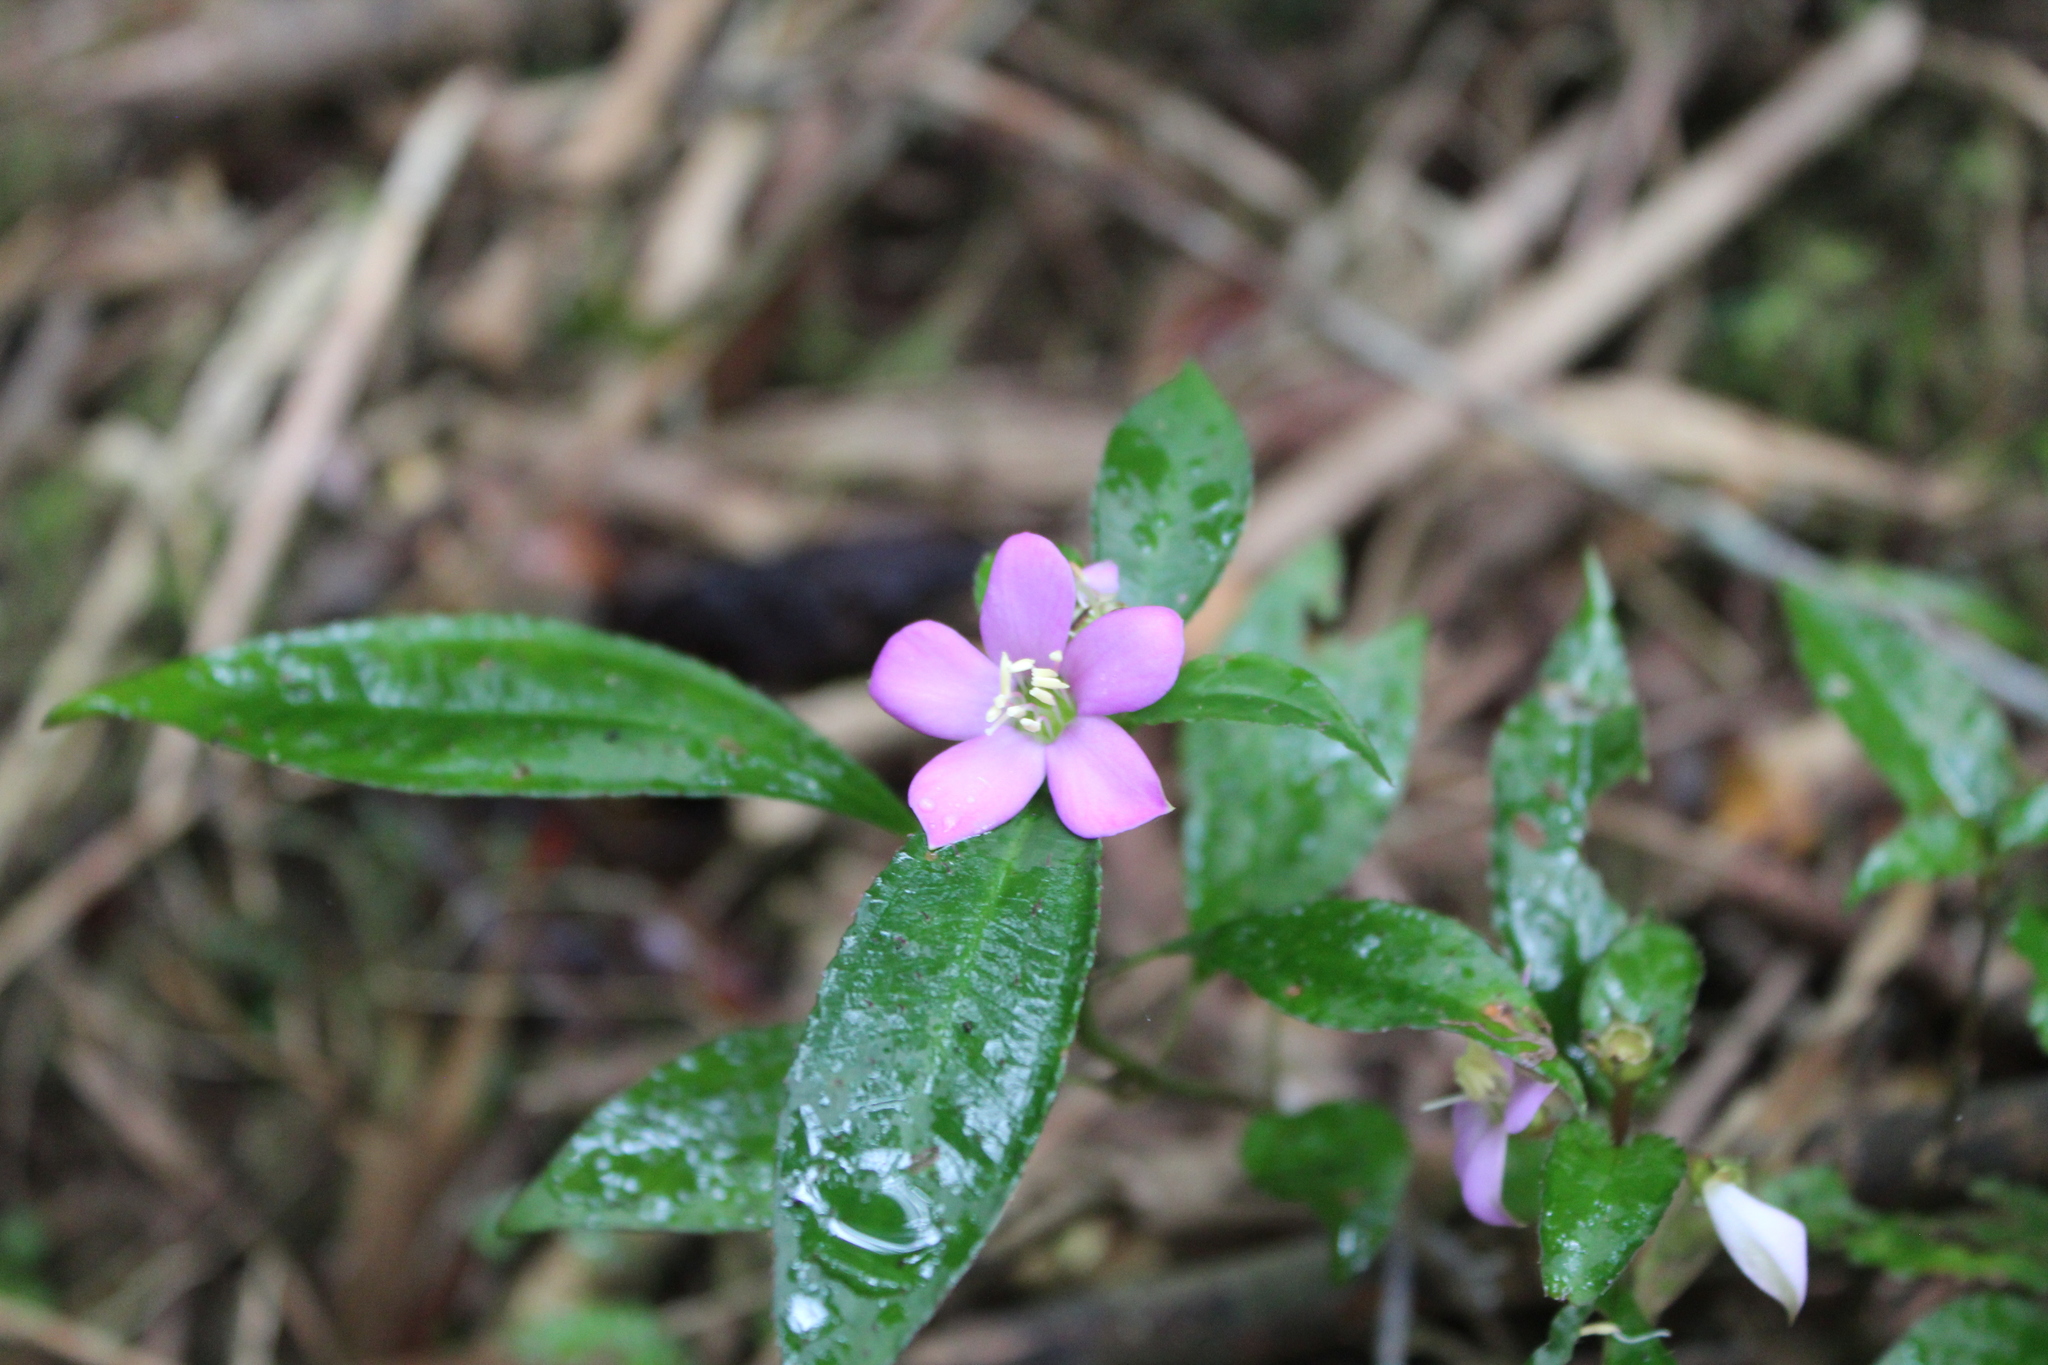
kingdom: Plantae
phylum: Tracheophyta
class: Magnoliopsida
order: Myrtales
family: Melastomataceae
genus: Tristemma
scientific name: Tristemma mauritianum
